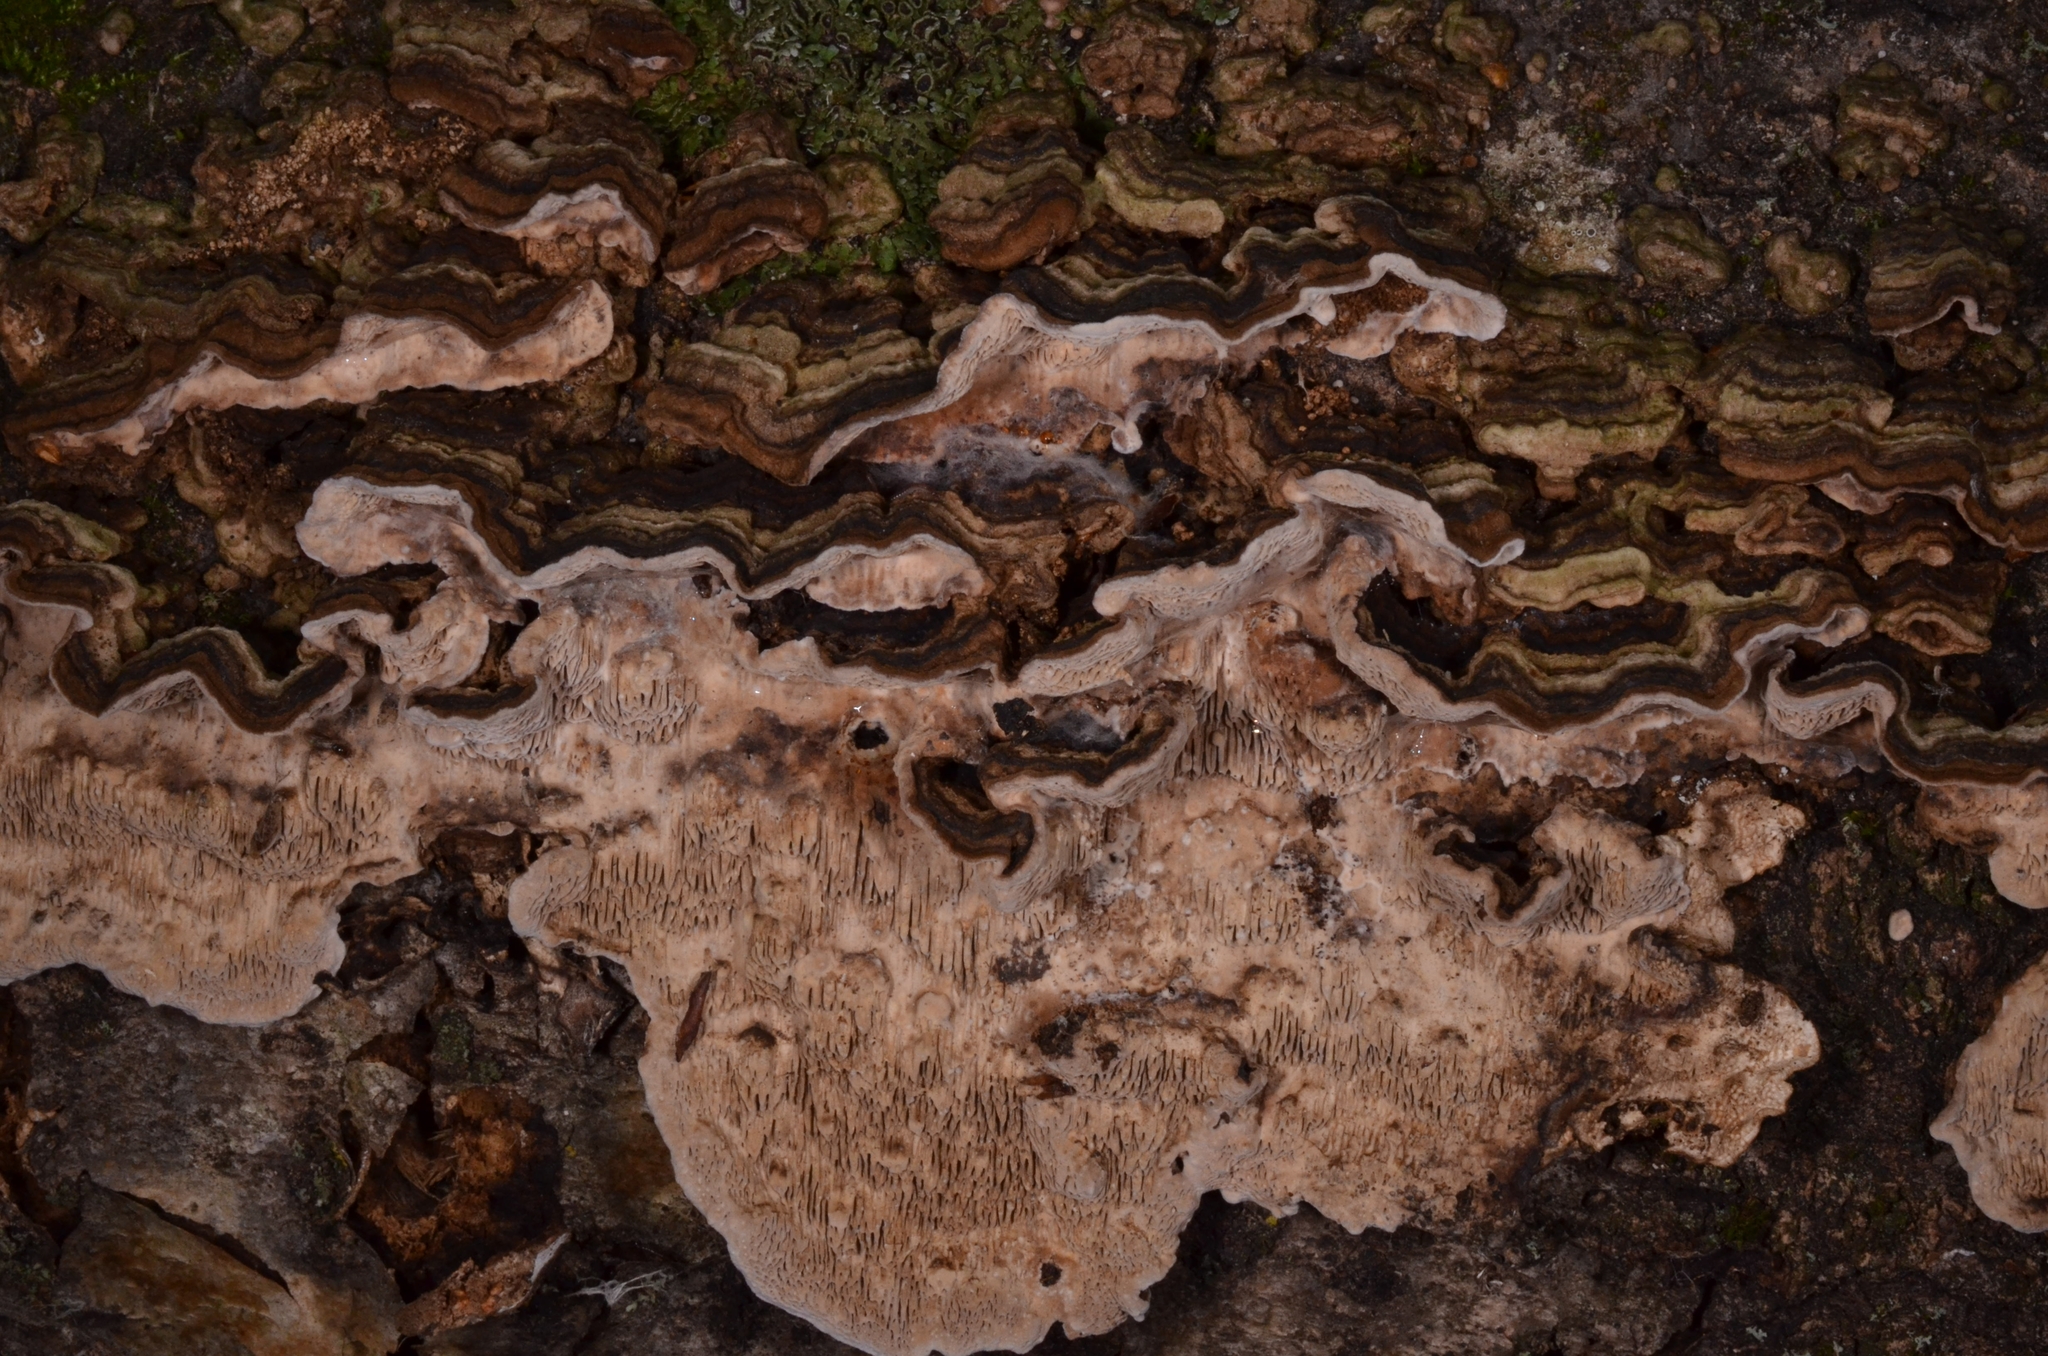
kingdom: Fungi
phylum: Basidiomycota
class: Agaricomycetes
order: Polyporales
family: Polyporaceae
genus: Podofomes
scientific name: Podofomes mollis
